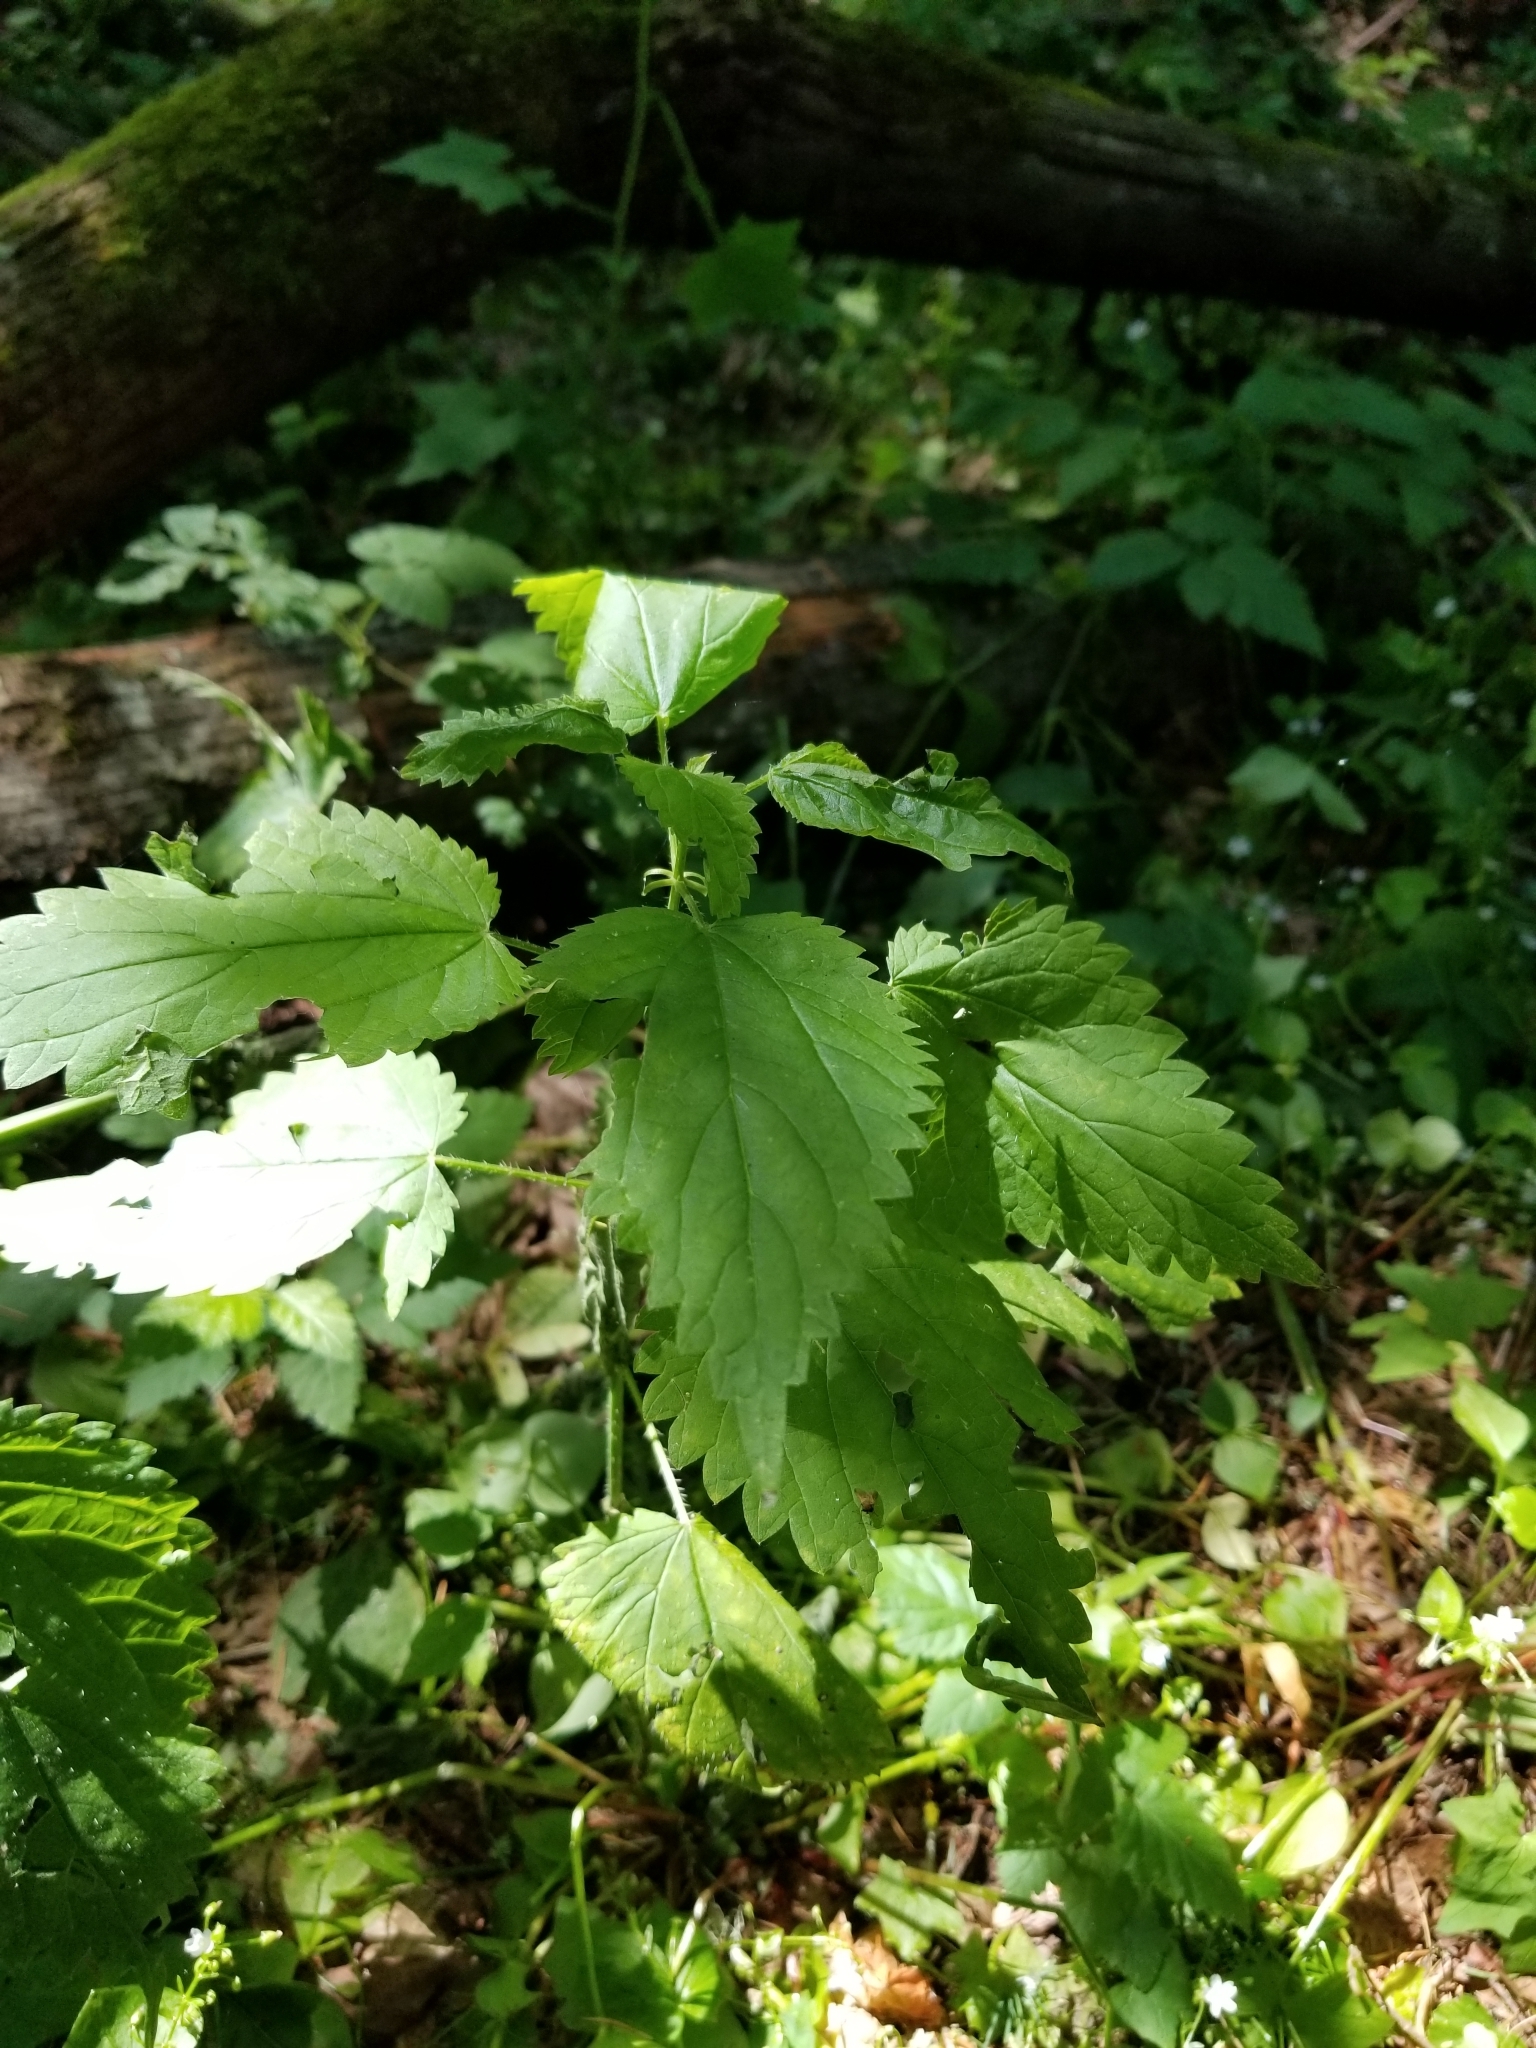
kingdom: Plantae
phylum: Tracheophyta
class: Magnoliopsida
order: Rosales
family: Urticaceae
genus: Urtica
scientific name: Urtica dioica
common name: Common nettle
